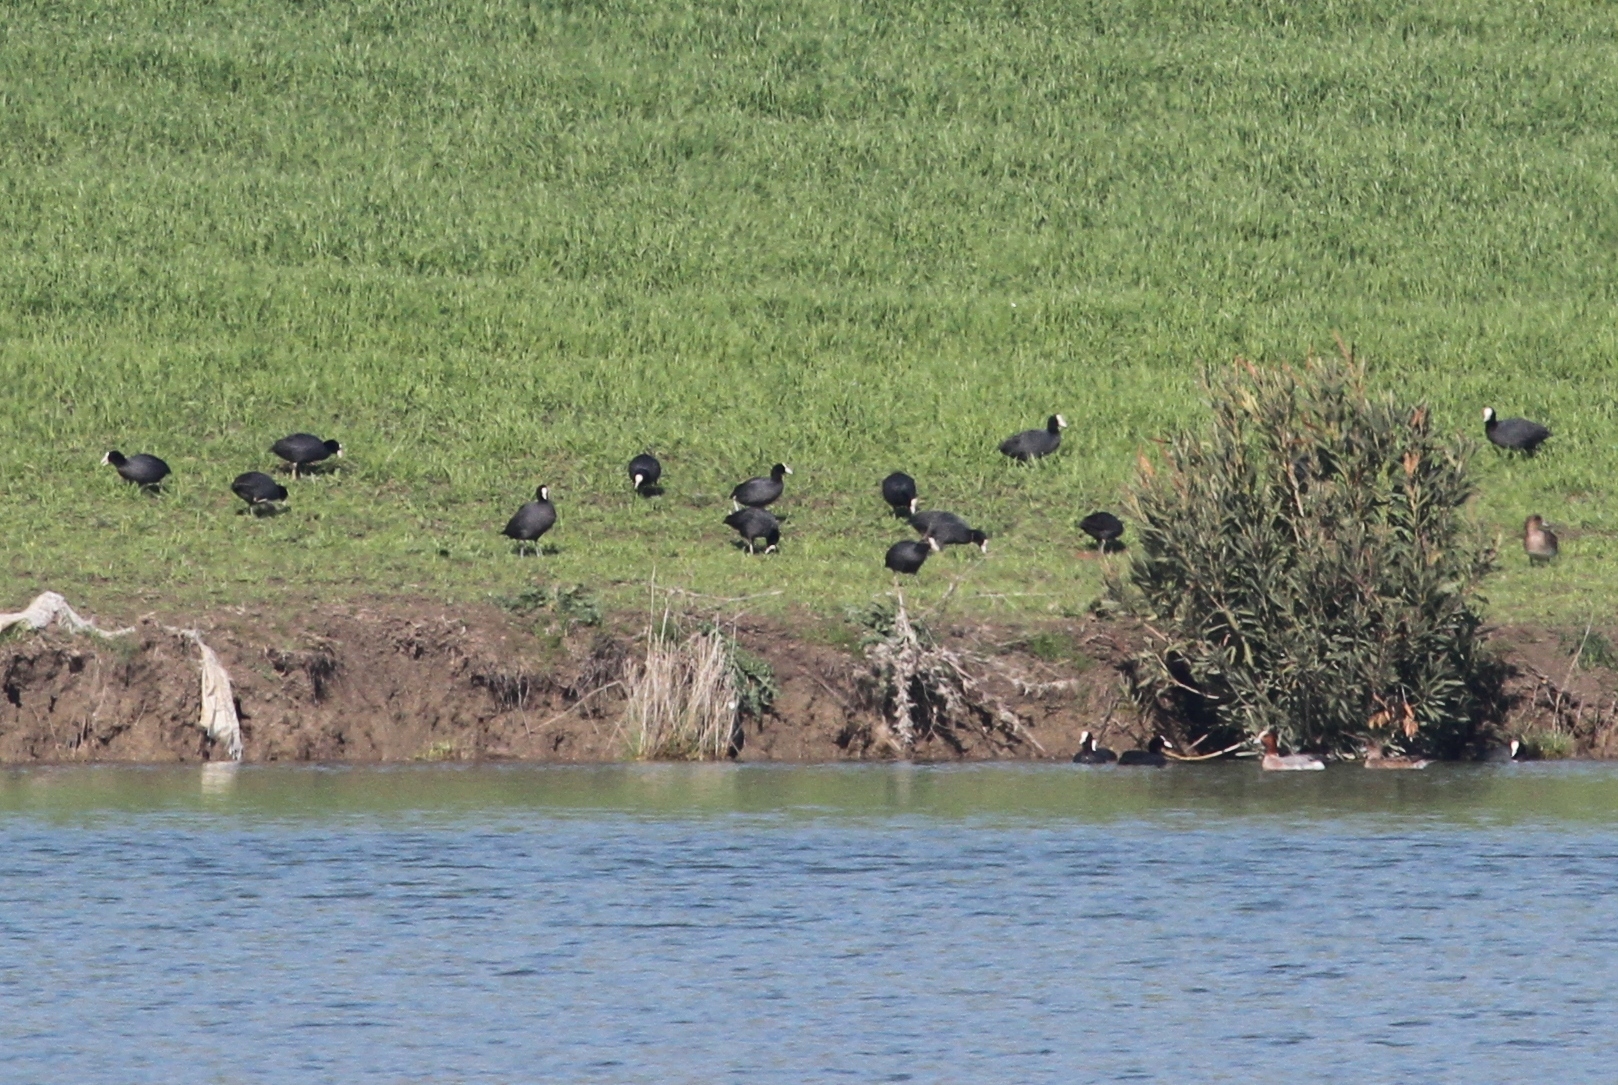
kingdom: Animalia
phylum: Chordata
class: Aves
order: Gruiformes
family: Rallidae
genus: Fulica
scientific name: Fulica atra
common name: Eurasian coot
